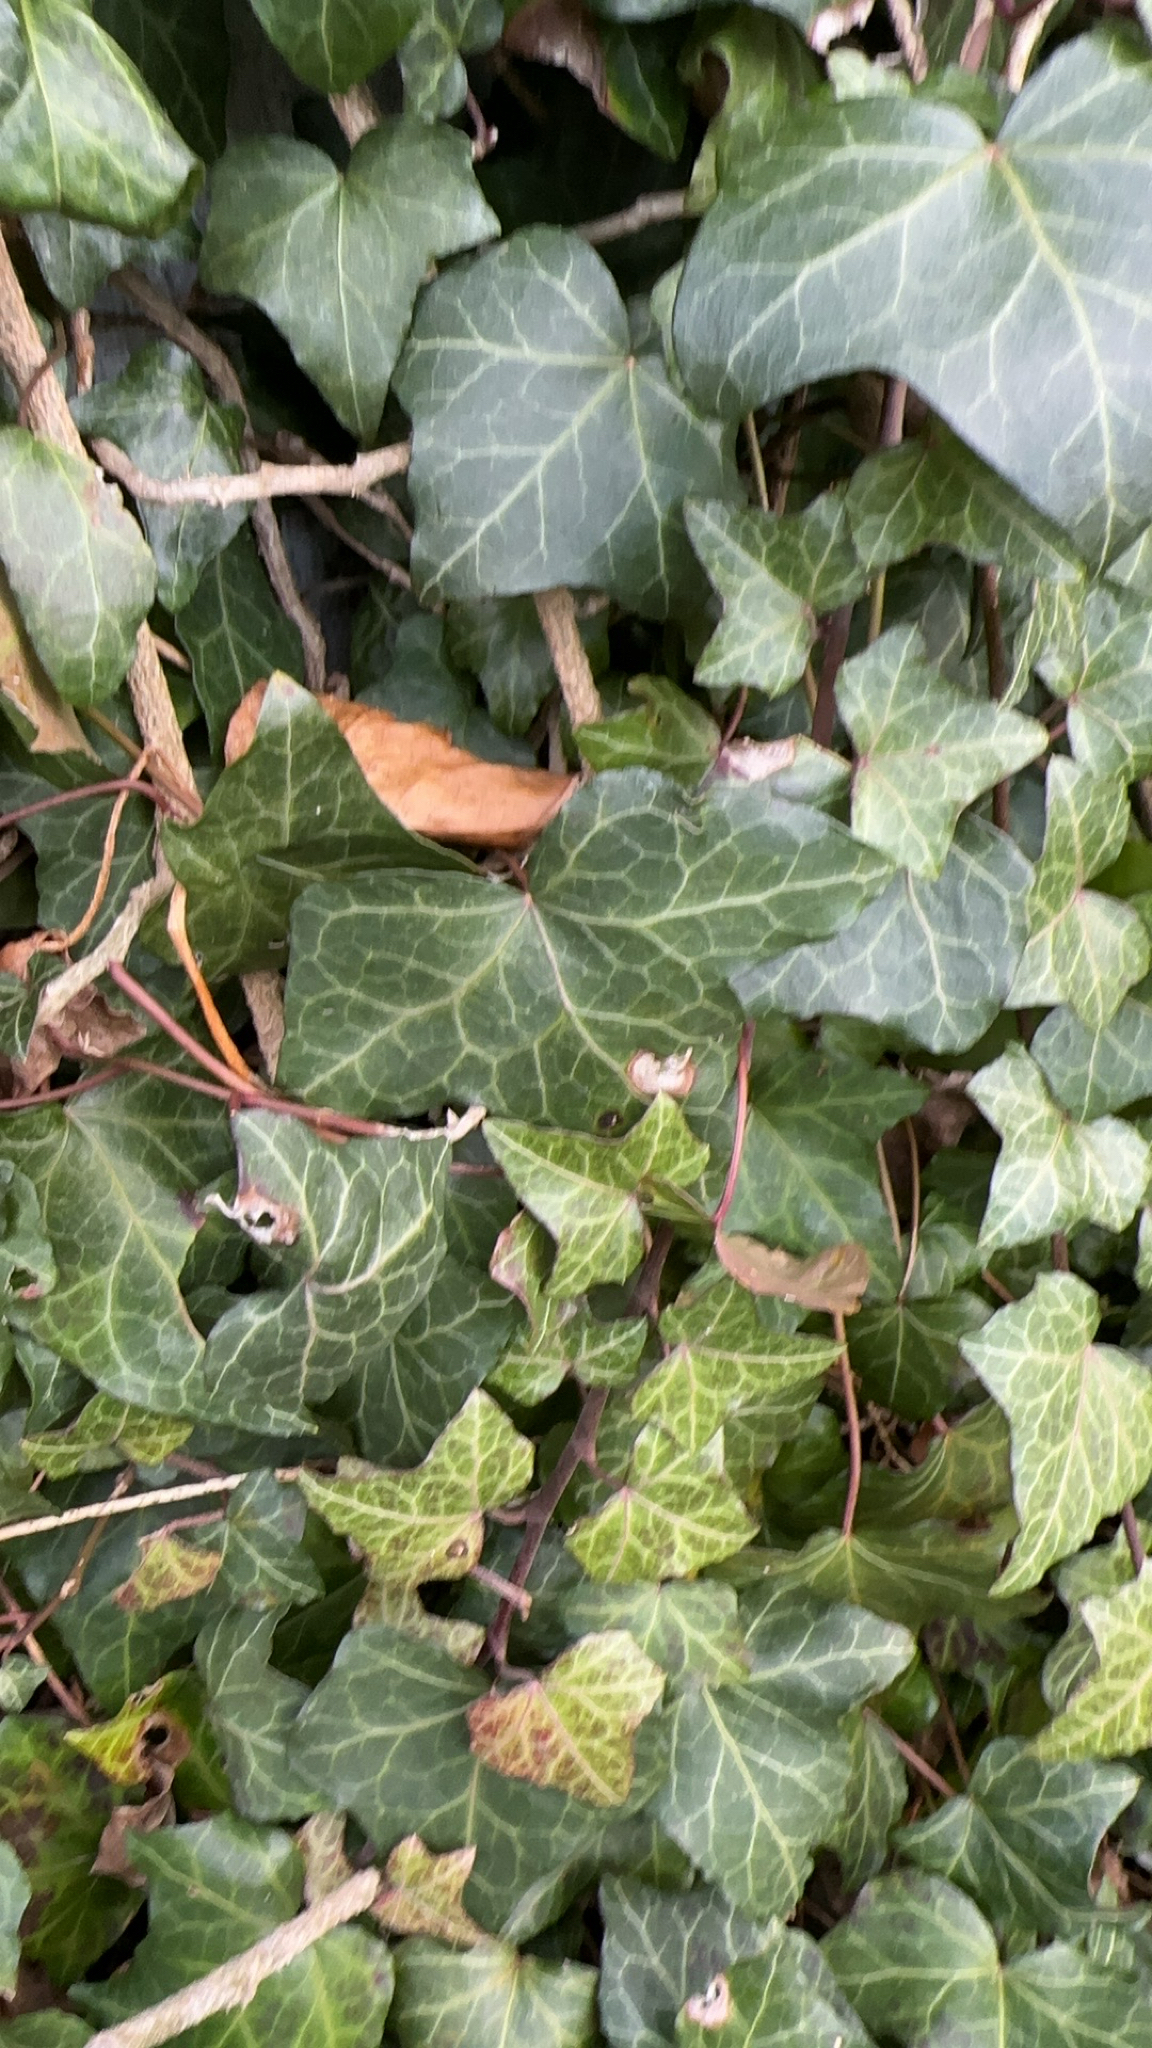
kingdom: Plantae
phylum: Tracheophyta
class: Magnoliopsida
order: Apiales
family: Araliaceae
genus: Hedera
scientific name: Hedera helix
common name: Ivy
